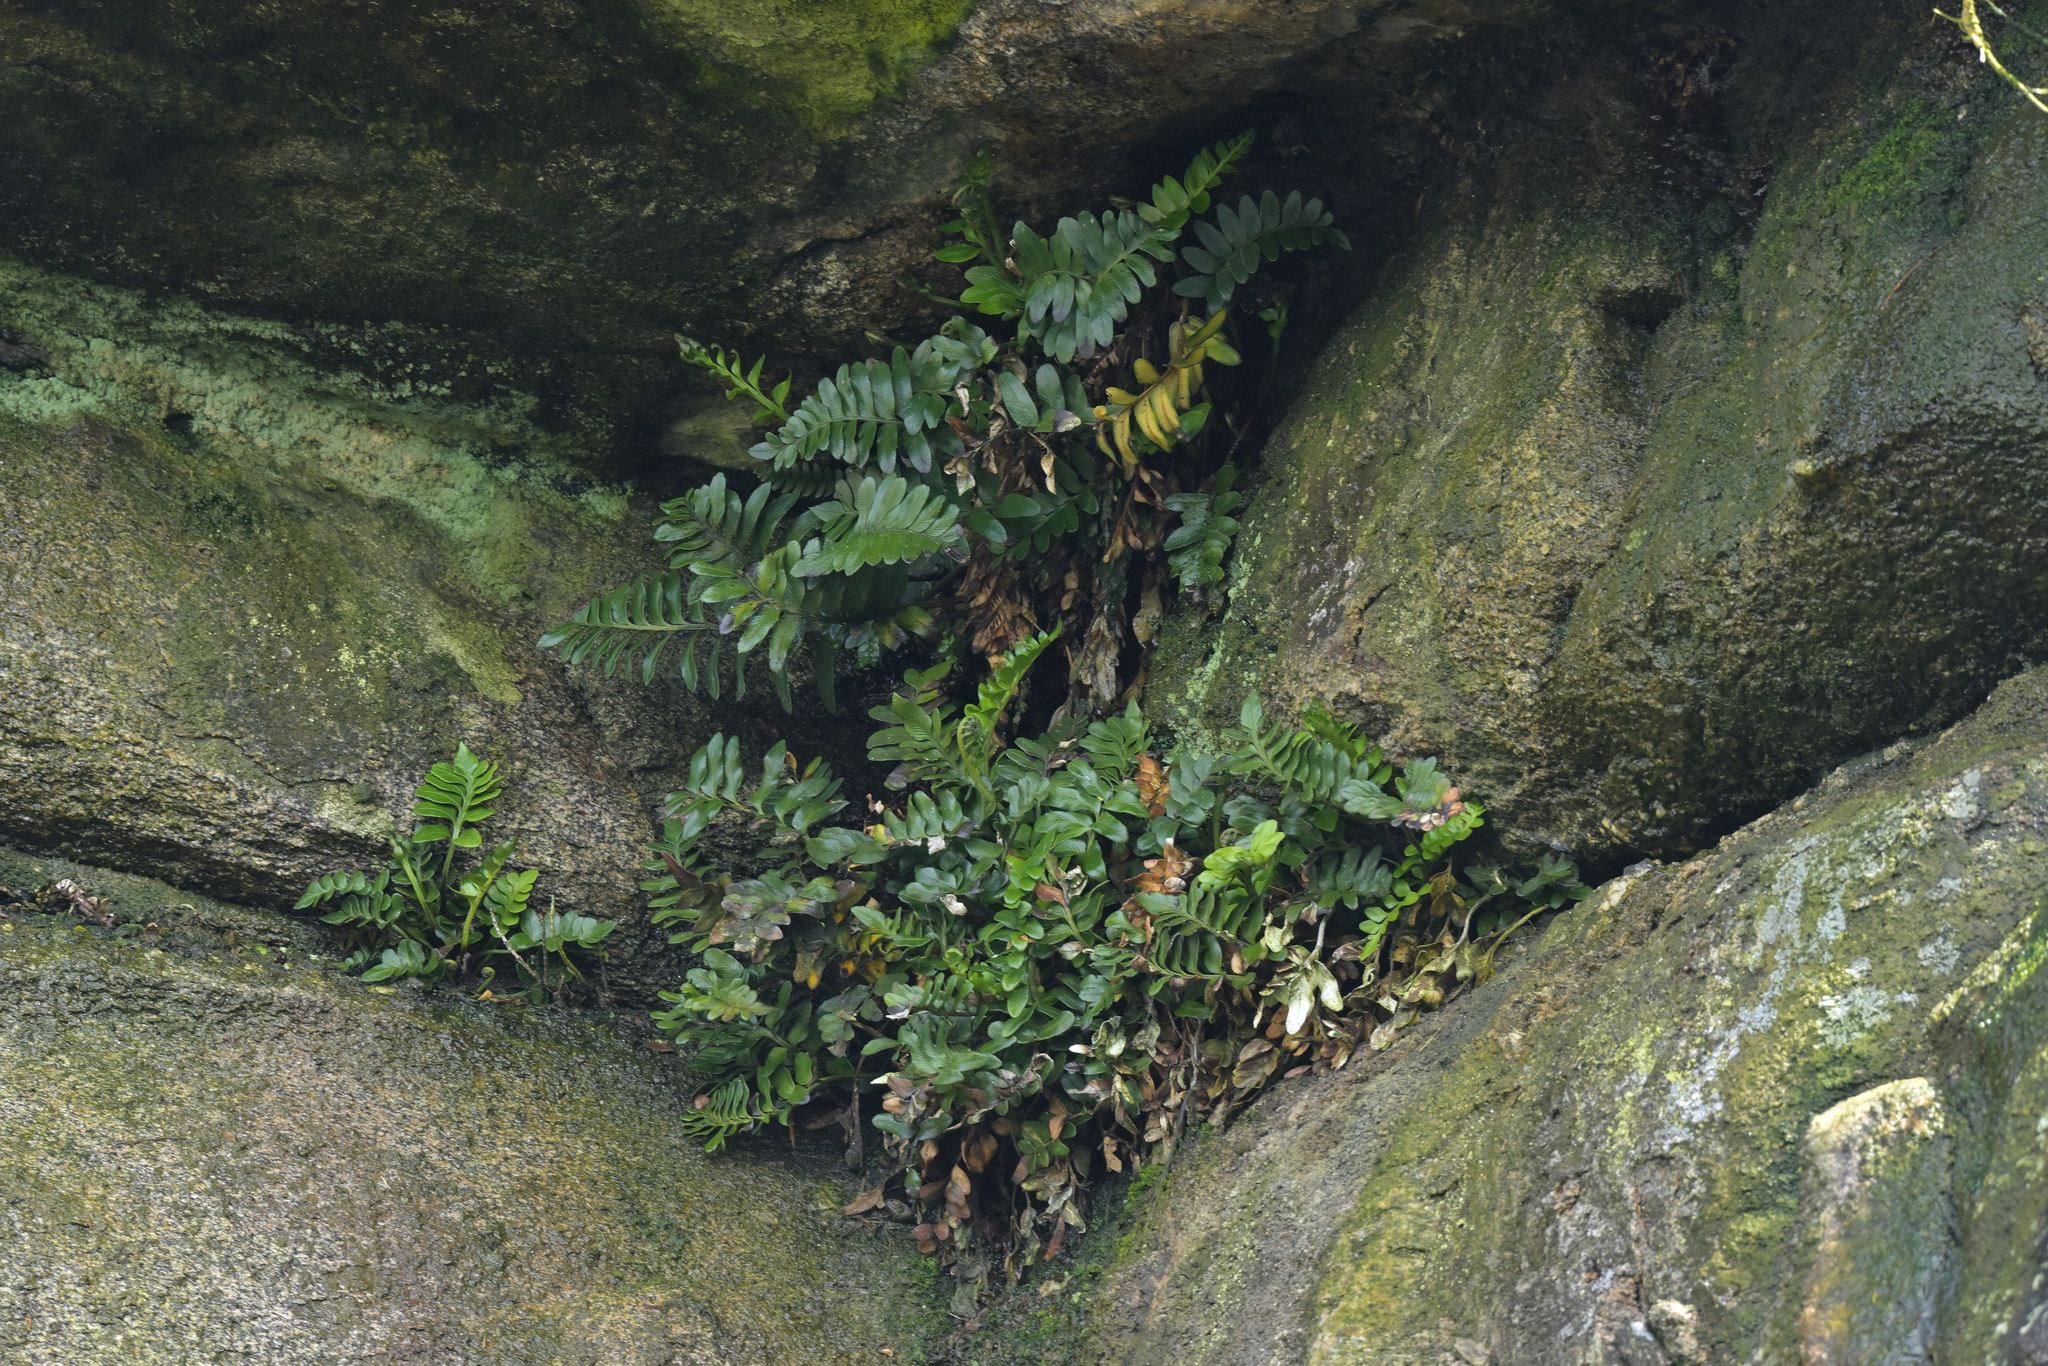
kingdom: Plantae
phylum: Tracheophyta
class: Polypodiopsida
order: Polypodiales
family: Aspleniaceae
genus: Asplenium
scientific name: Asplenium obtusatum
